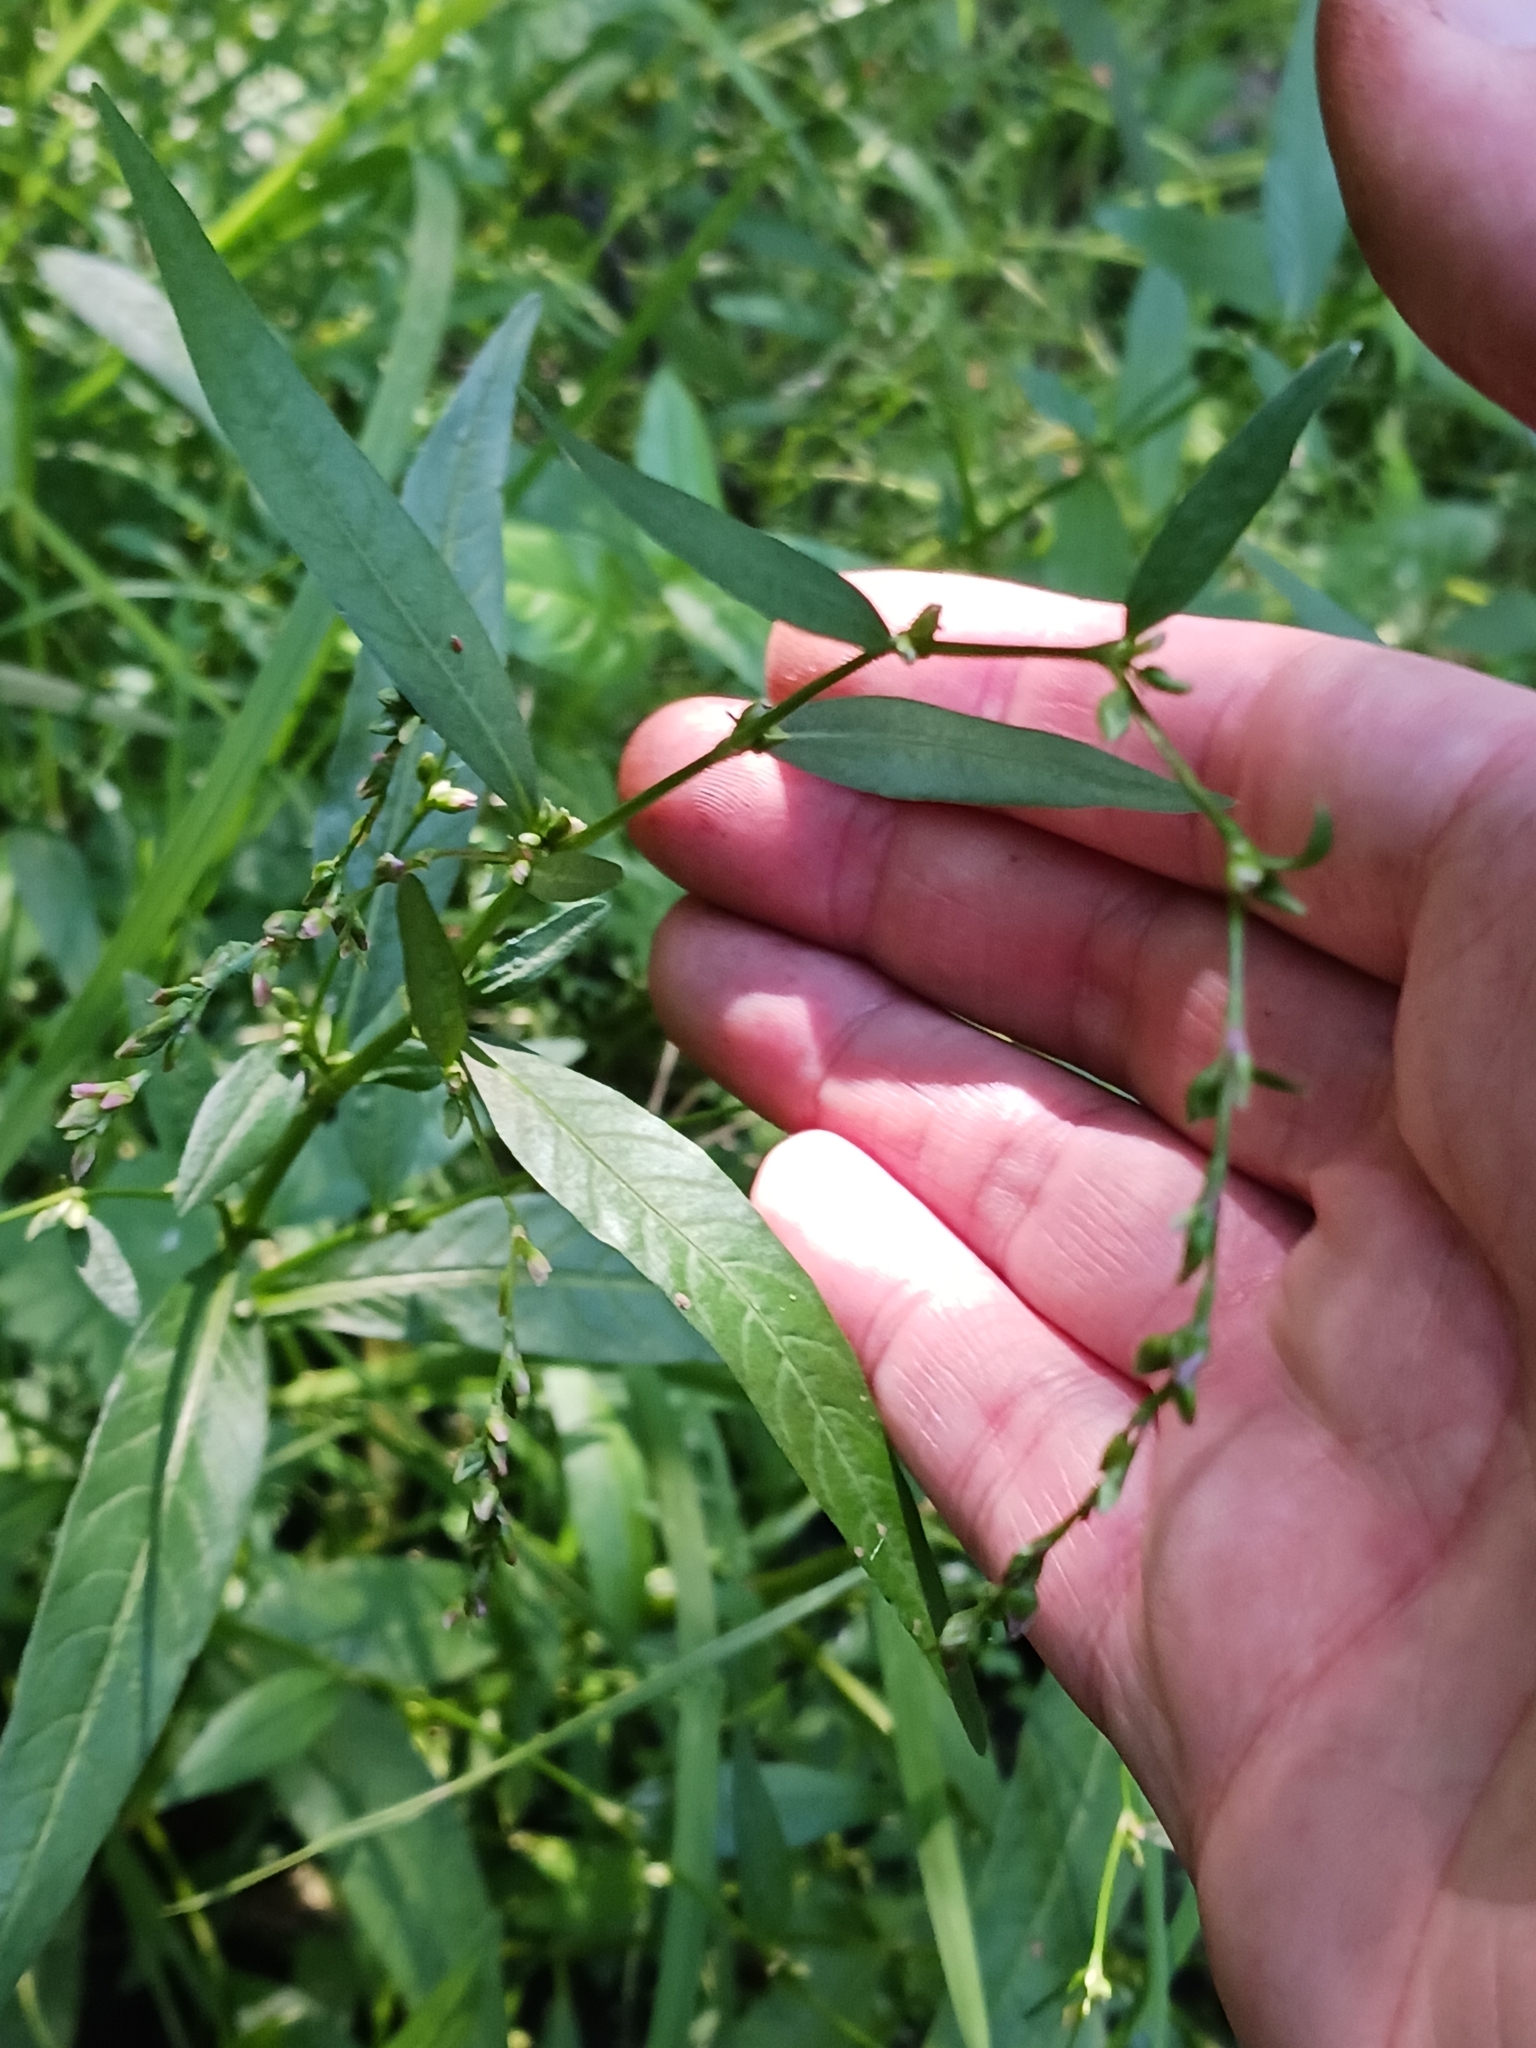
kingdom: Plantae
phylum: Tracheophyta
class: Magnoliopsida
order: Caryophyllales
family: Polygonaceae
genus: Persicaria
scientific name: Persicaria hydropiper
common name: Water-pepper
